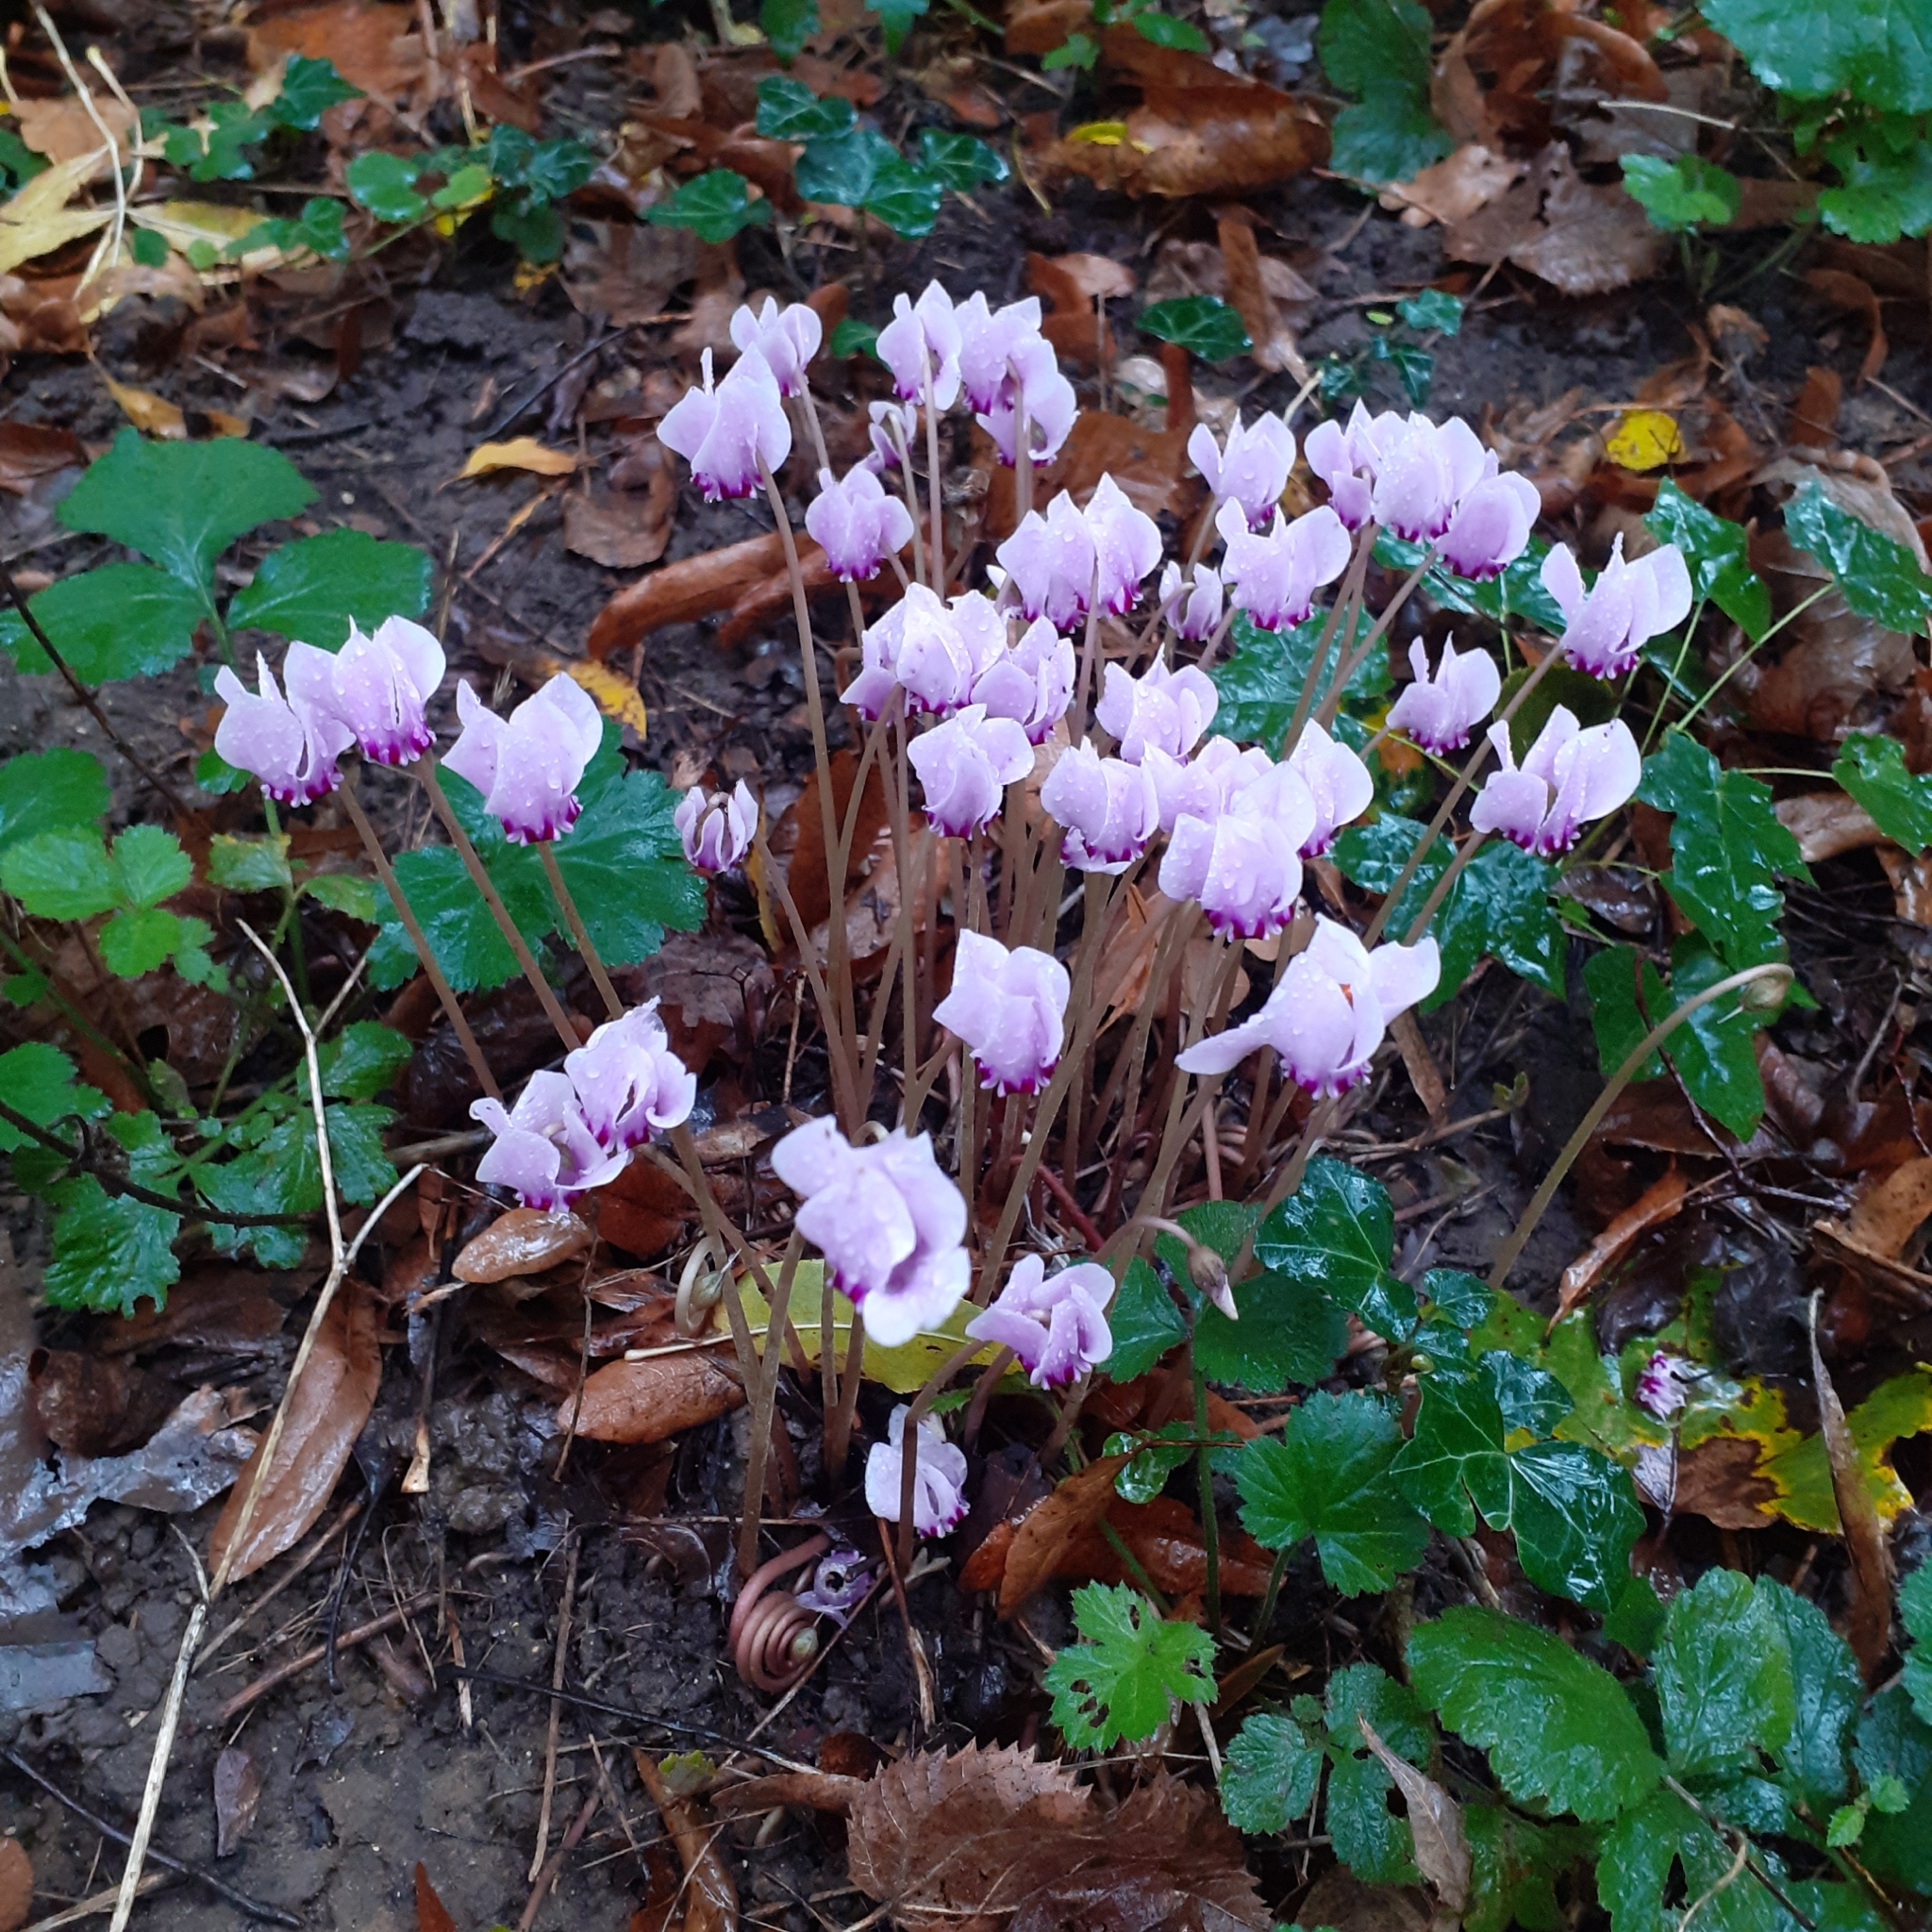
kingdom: Plantae
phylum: Tracheophyta
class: Magnoliopsida
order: Ericales
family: Primulaceae
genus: Cyclamen
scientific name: Cyclamen hederifolium
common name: Sowbread
